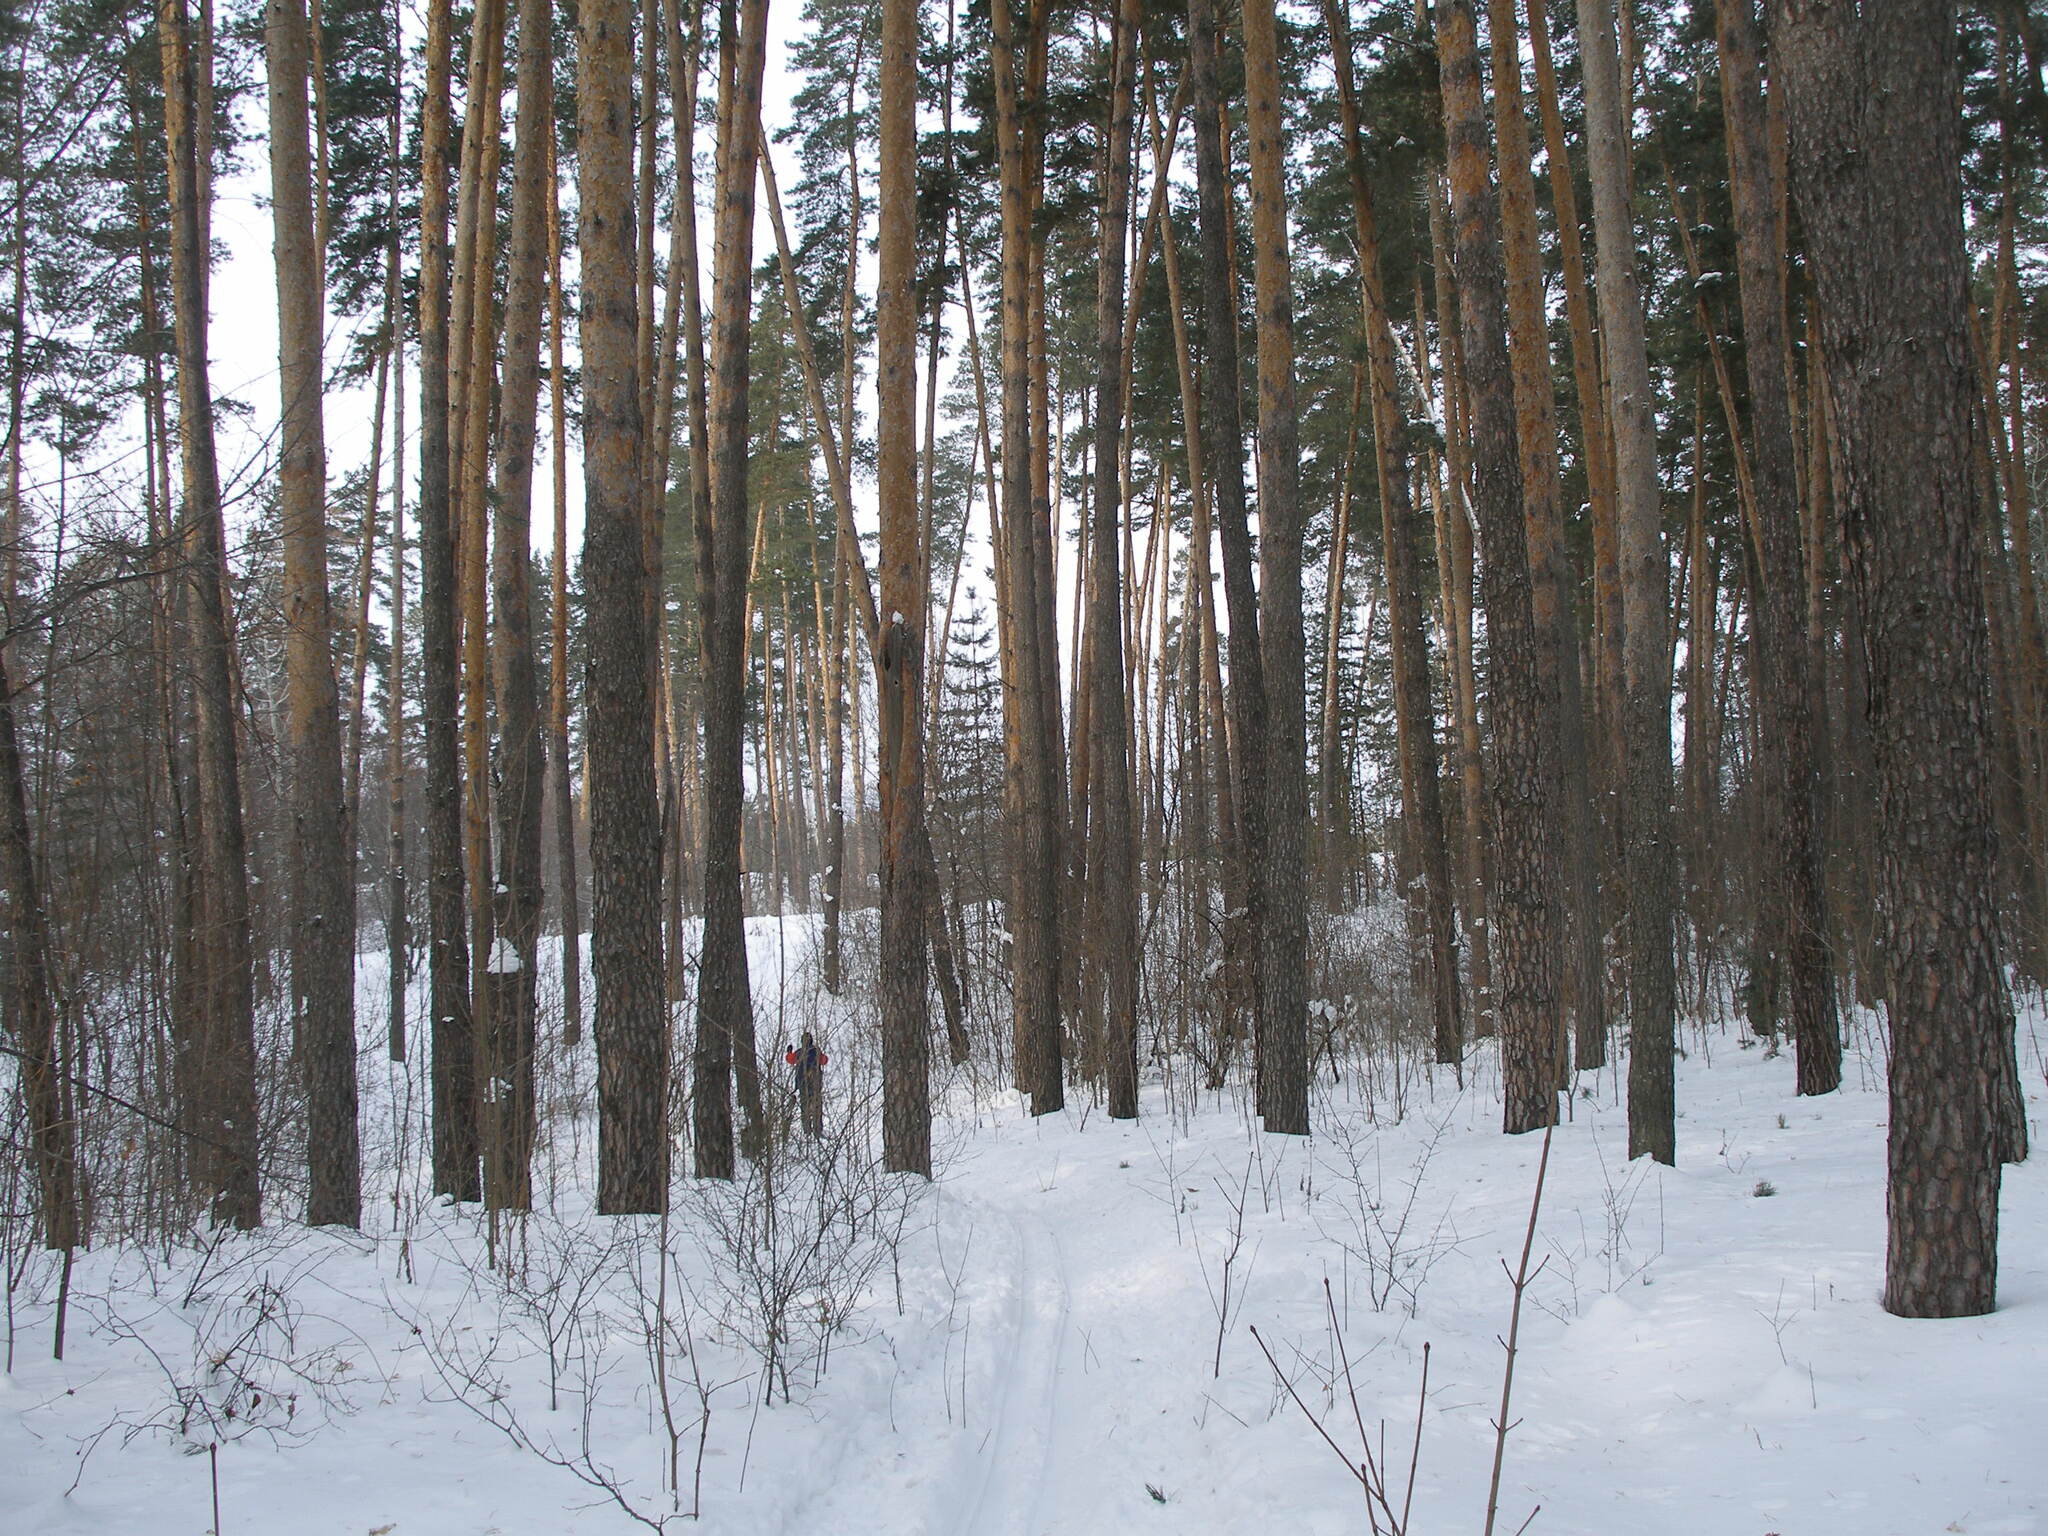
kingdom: Plantae
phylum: Tracheophyta
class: Pinopsida
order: Pinales
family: Pinaceae
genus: Pinus
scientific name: Pinus sylvestris
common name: Scots pine
